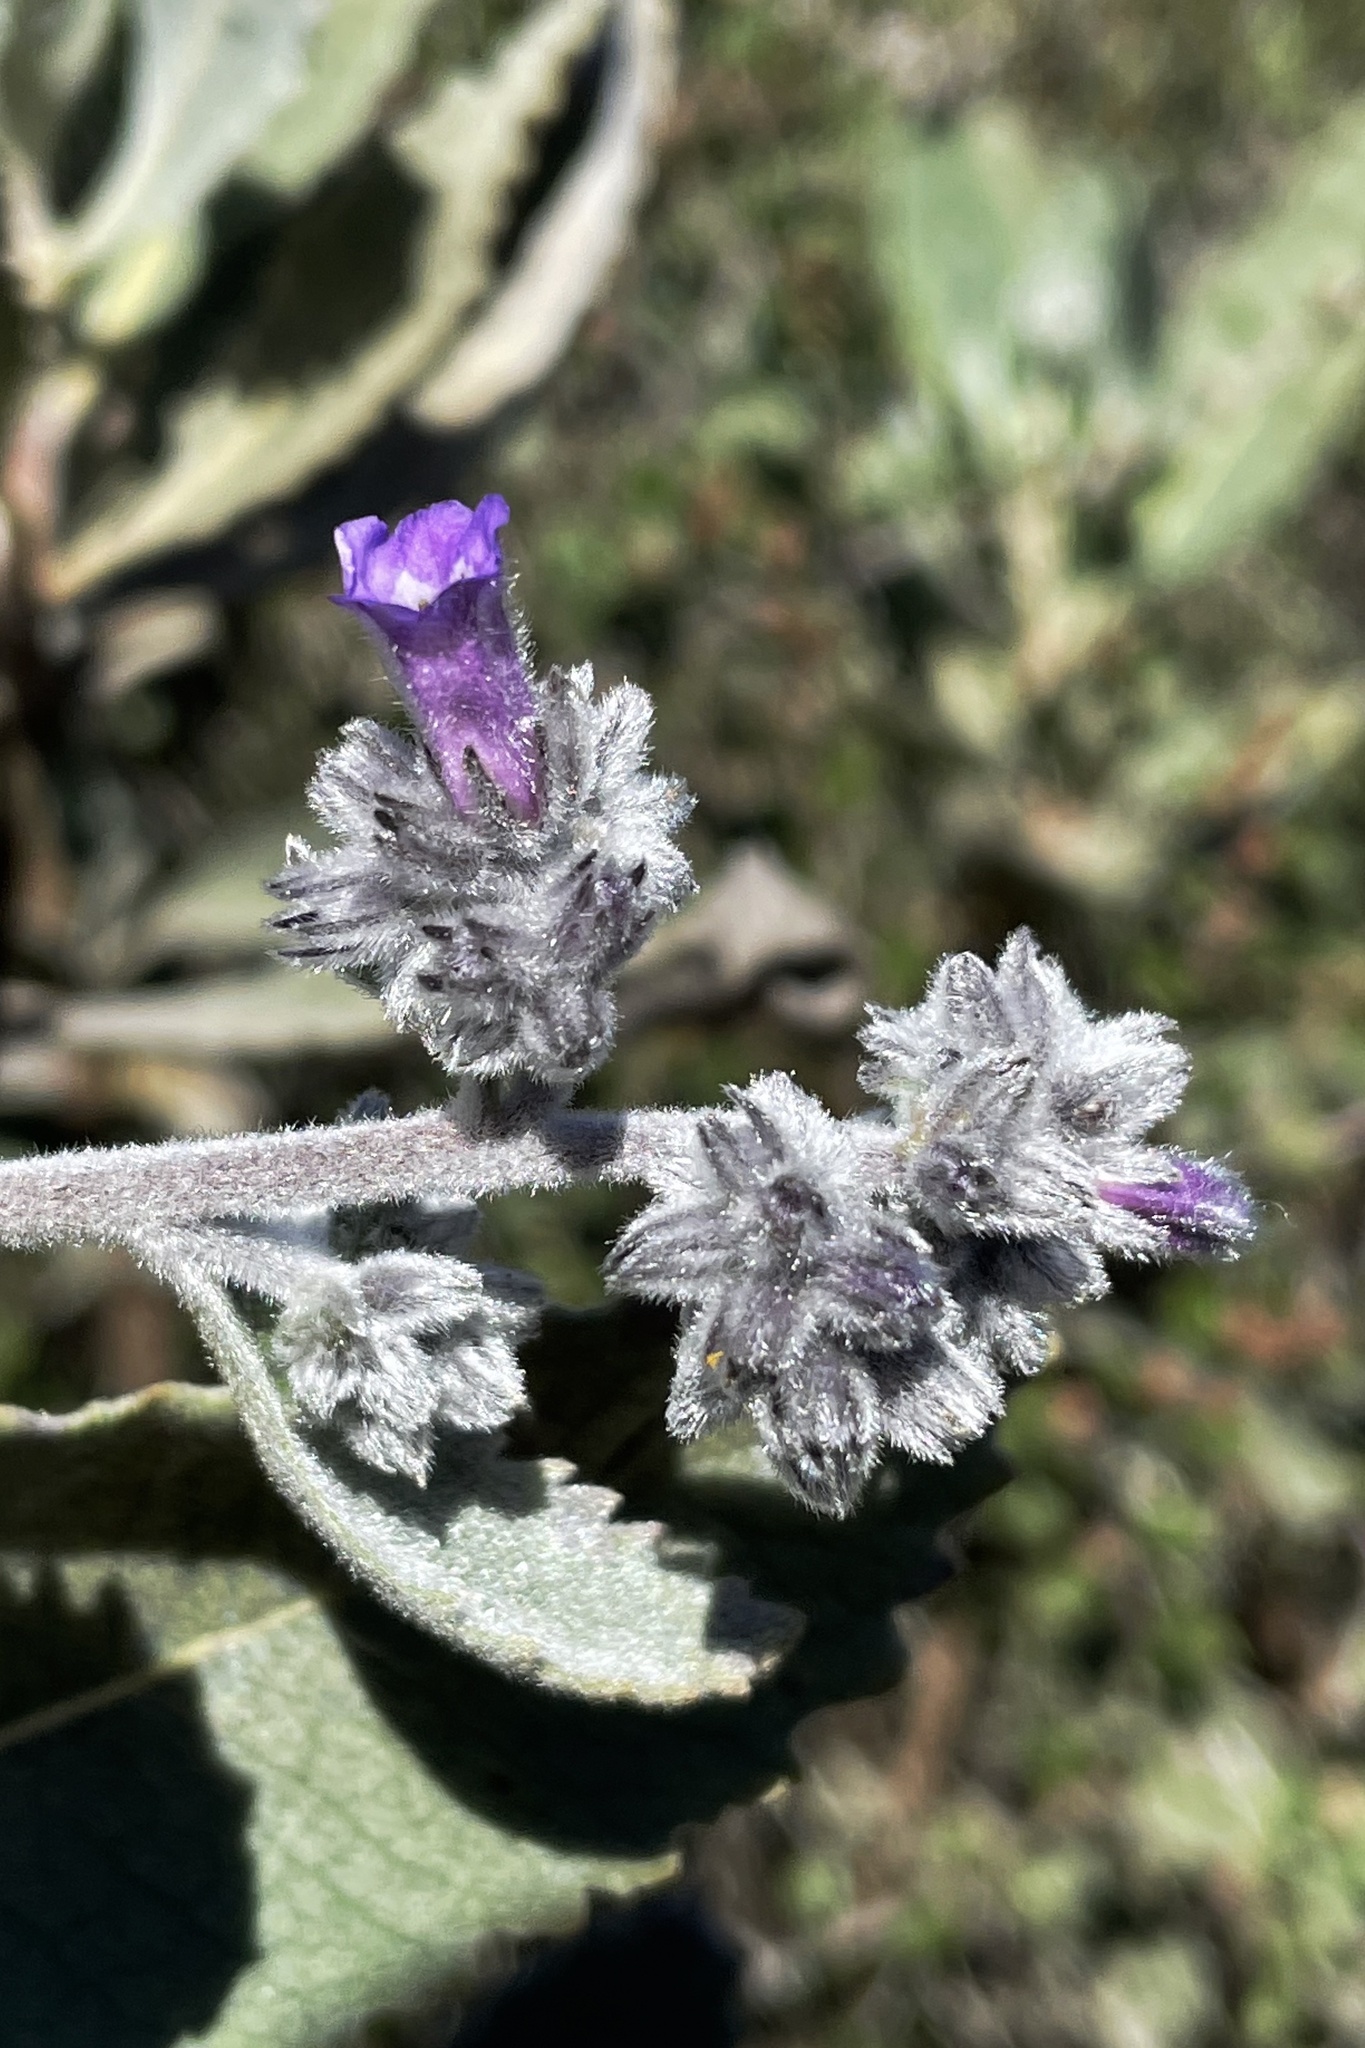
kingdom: Plantae
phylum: Tracheophyta
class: Magnoliopsida
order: Boraginales
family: Namaceae
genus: Eriodictyon
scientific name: Eriodictyon crassifolium
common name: Thick-leaf yerba-santa
